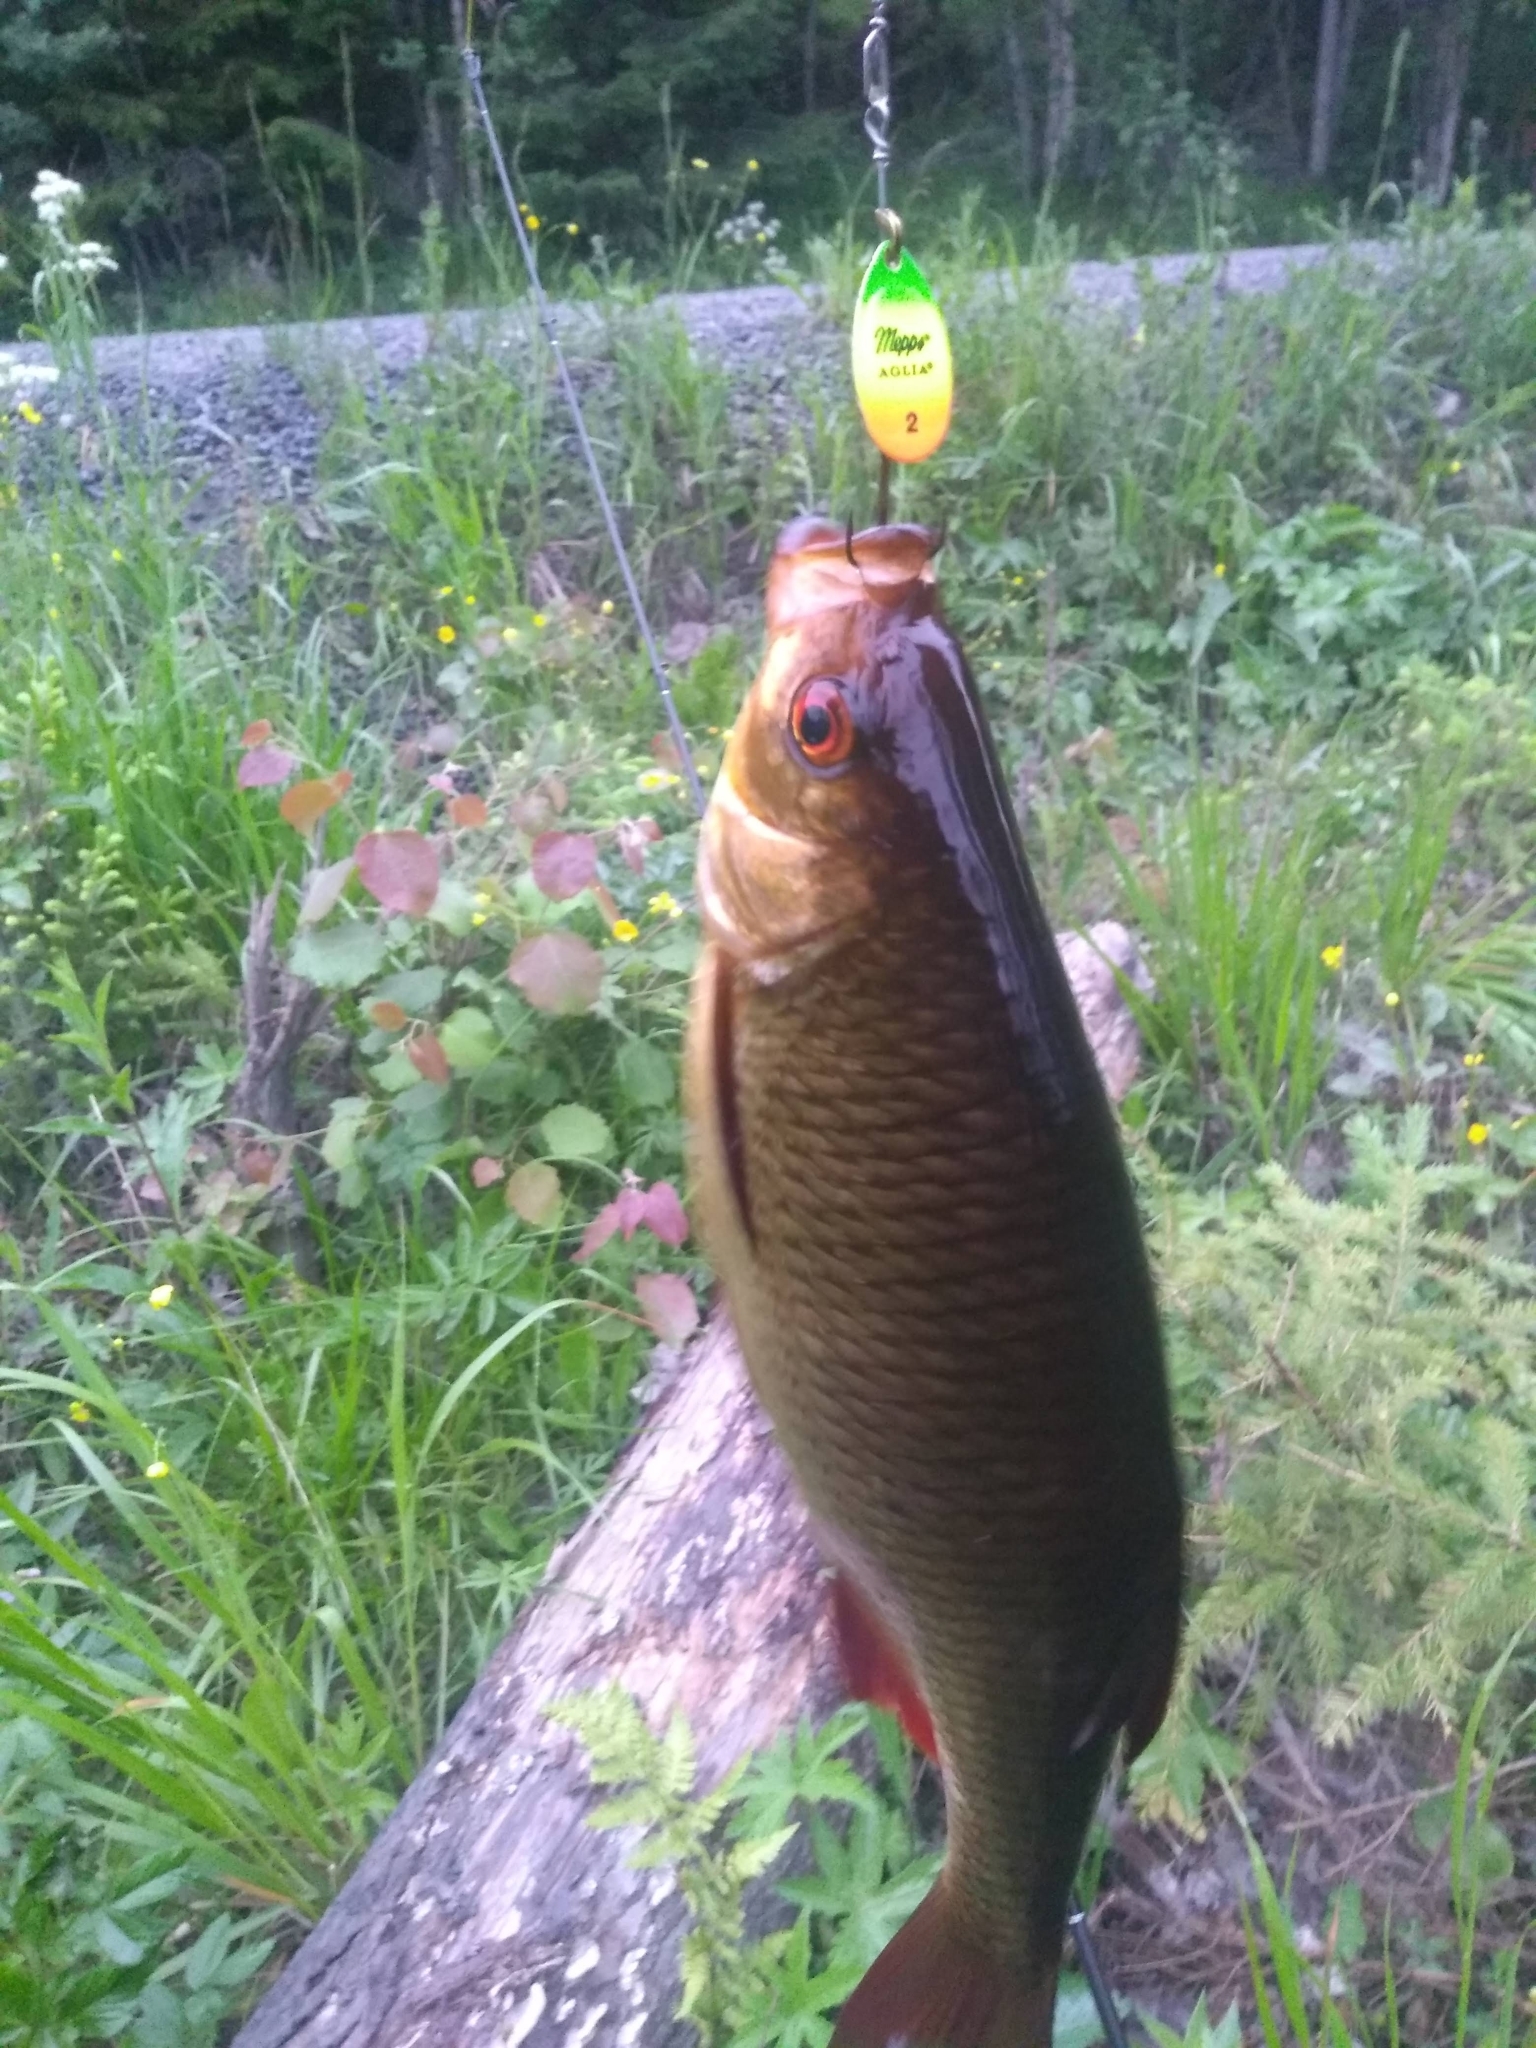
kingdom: Animalia
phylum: Chordata
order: Cypriniformes
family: Cyprinidae
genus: Scardinius
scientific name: Scardinius erythrophthalmus
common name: Rudd
